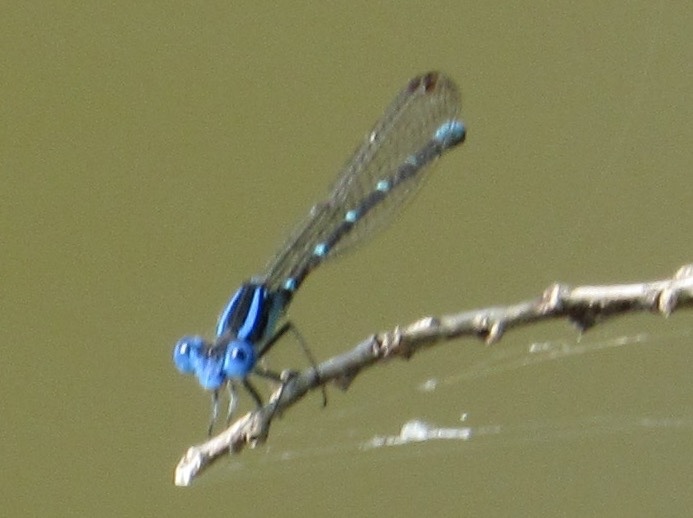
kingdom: Animalia
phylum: Arthropoda
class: Insecta
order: Odonata
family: Coenagrionidae
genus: Argia
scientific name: Argia sedula
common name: Blue-ringed dancer
